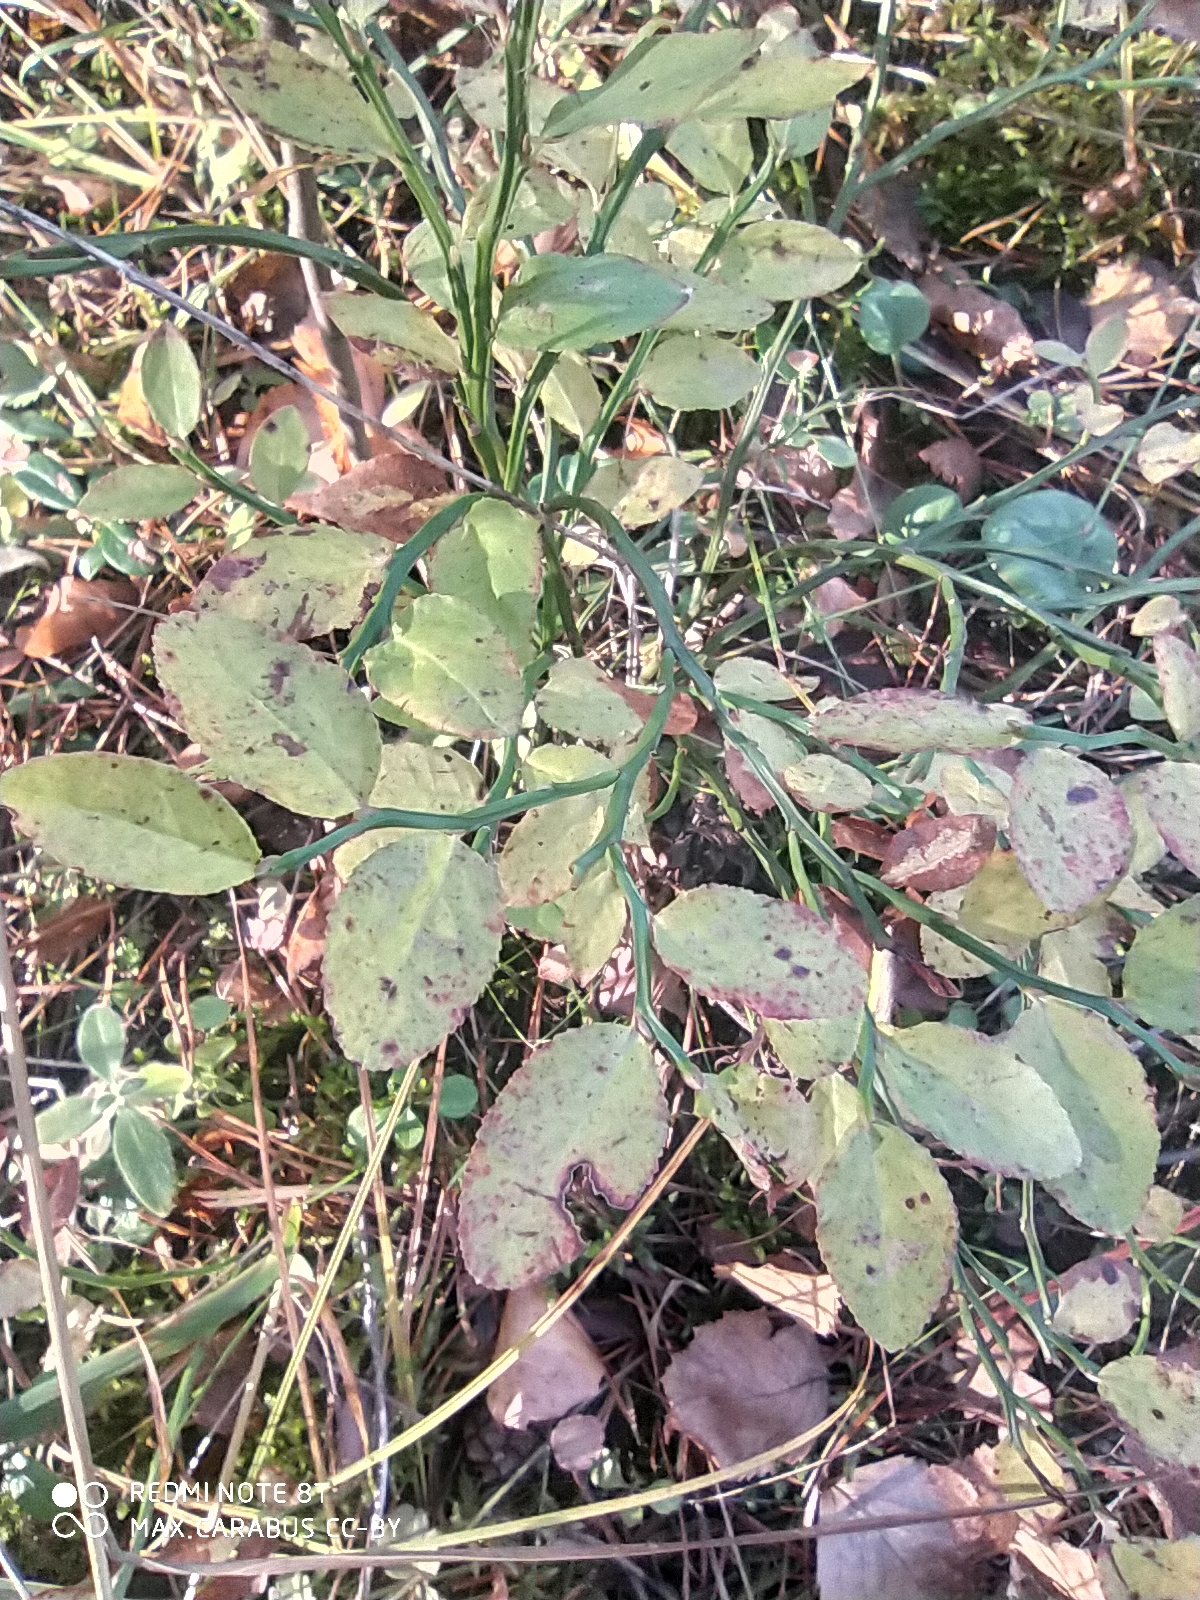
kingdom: Plantae
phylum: Tracheophyta
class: Magnoliopsida
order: Ericales
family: Ericaceae
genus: Vaccinium
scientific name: Vaccinium myrtillus
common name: Bilberry
